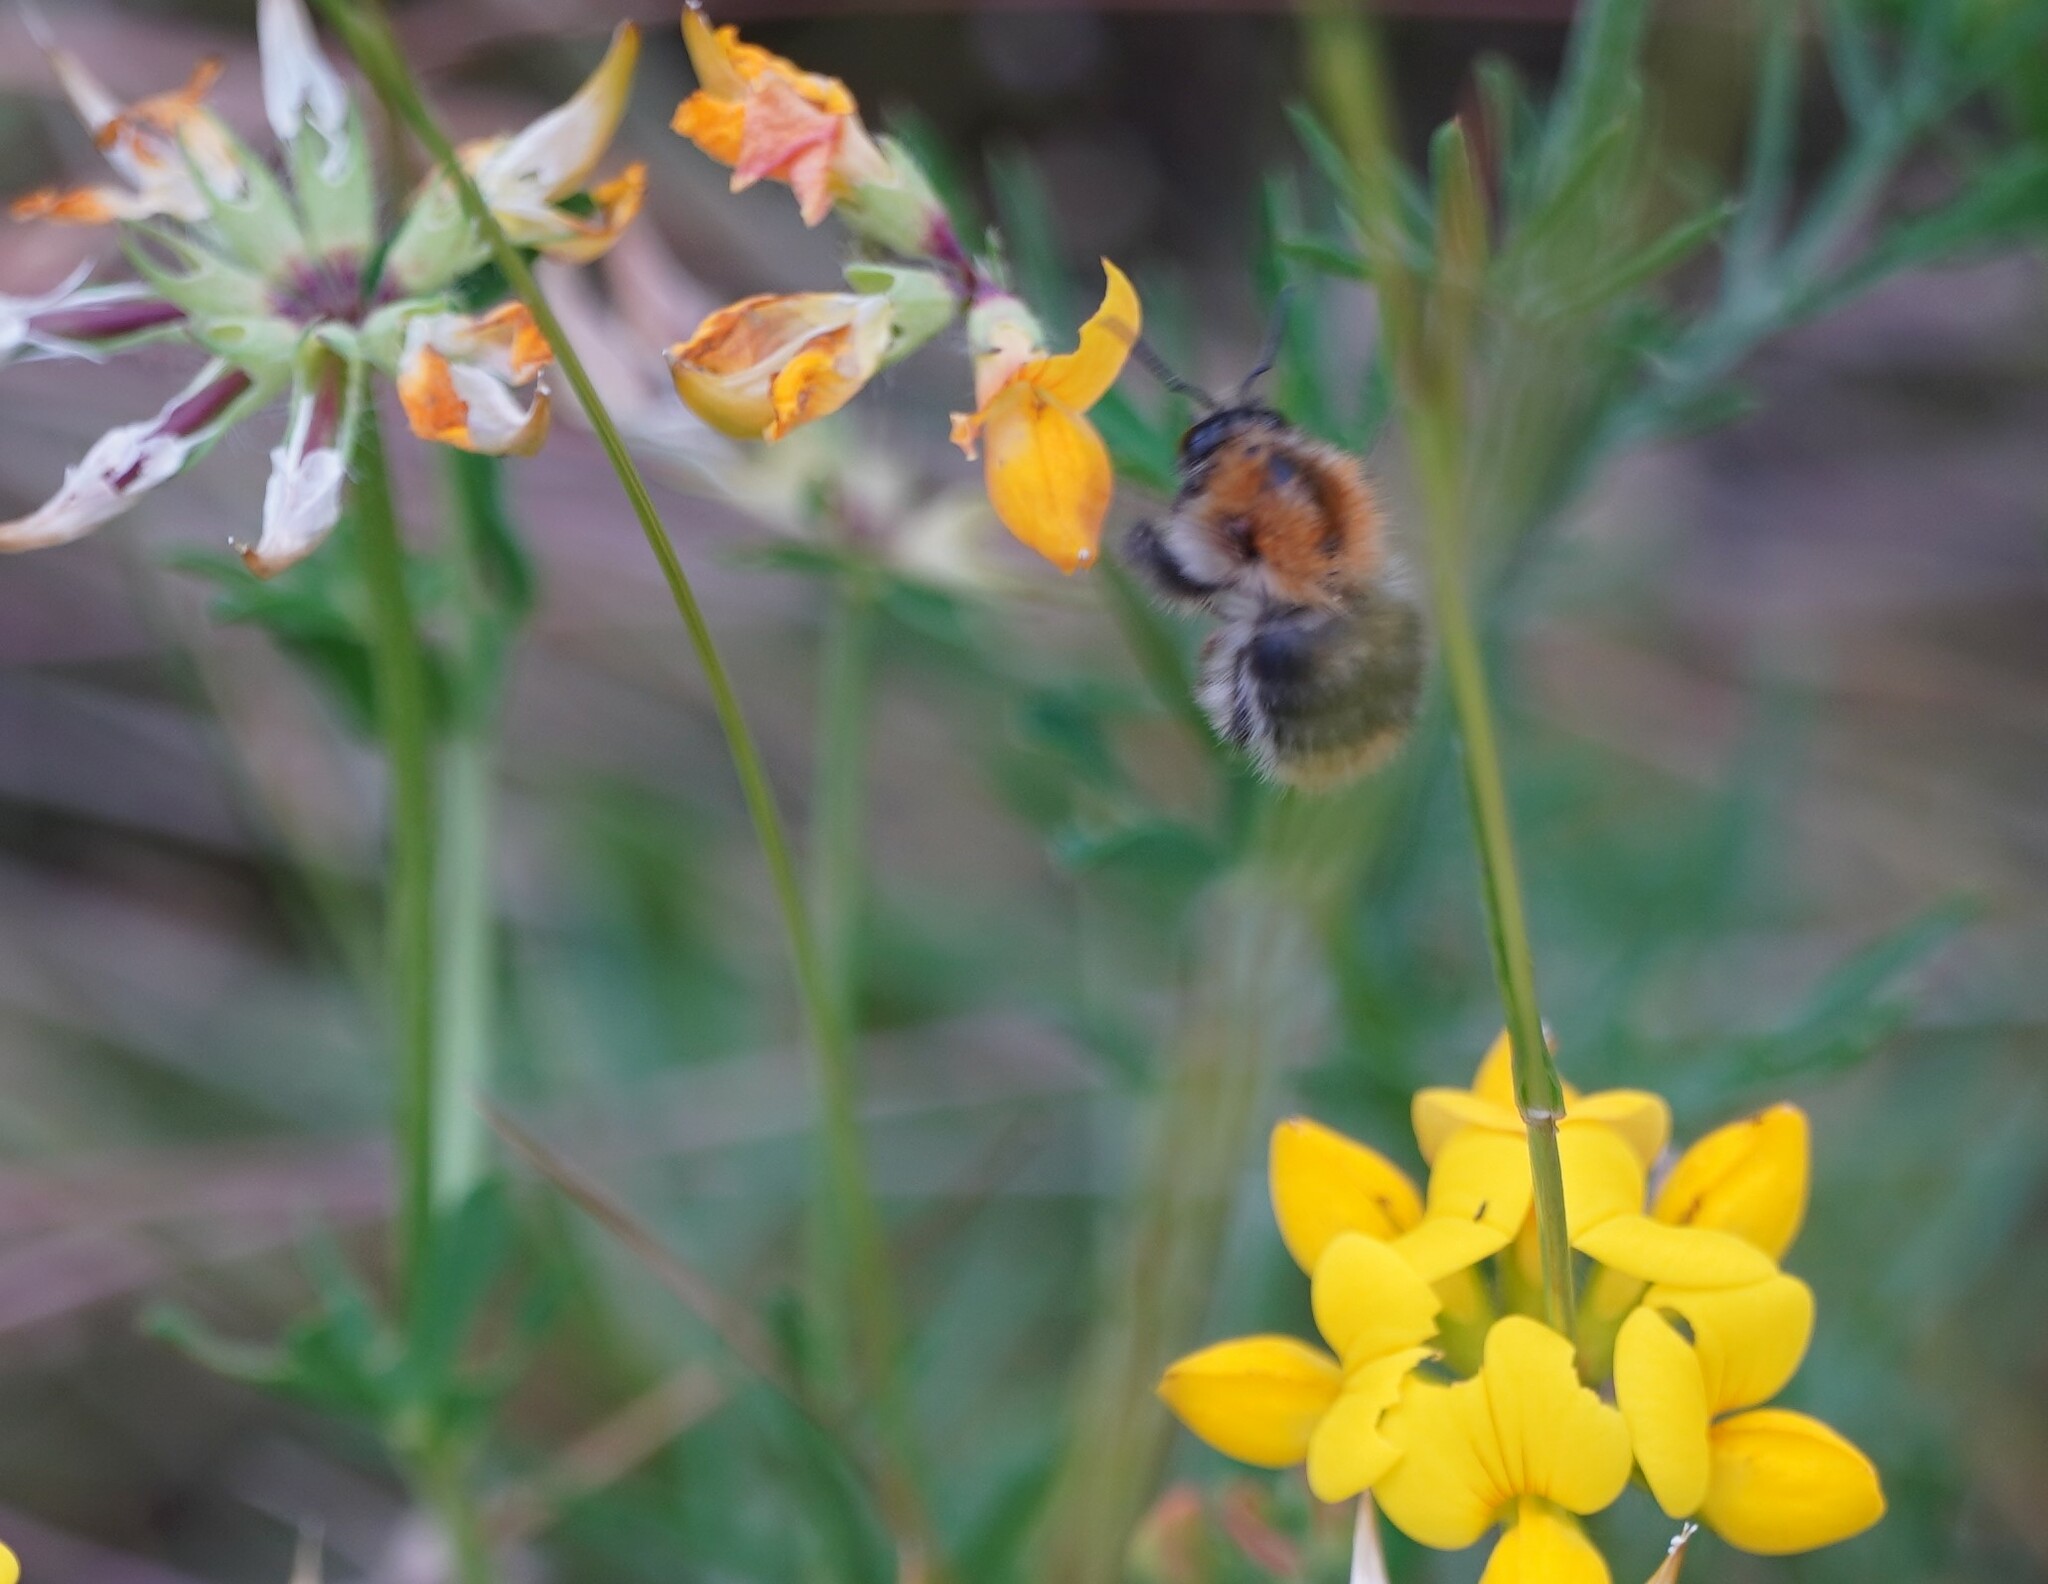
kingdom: Animalia
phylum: Arthropoda
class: Insecta
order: Hymenoptera
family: Apidae
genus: Bombus
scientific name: Bombus pascuorum
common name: Common carder bee
